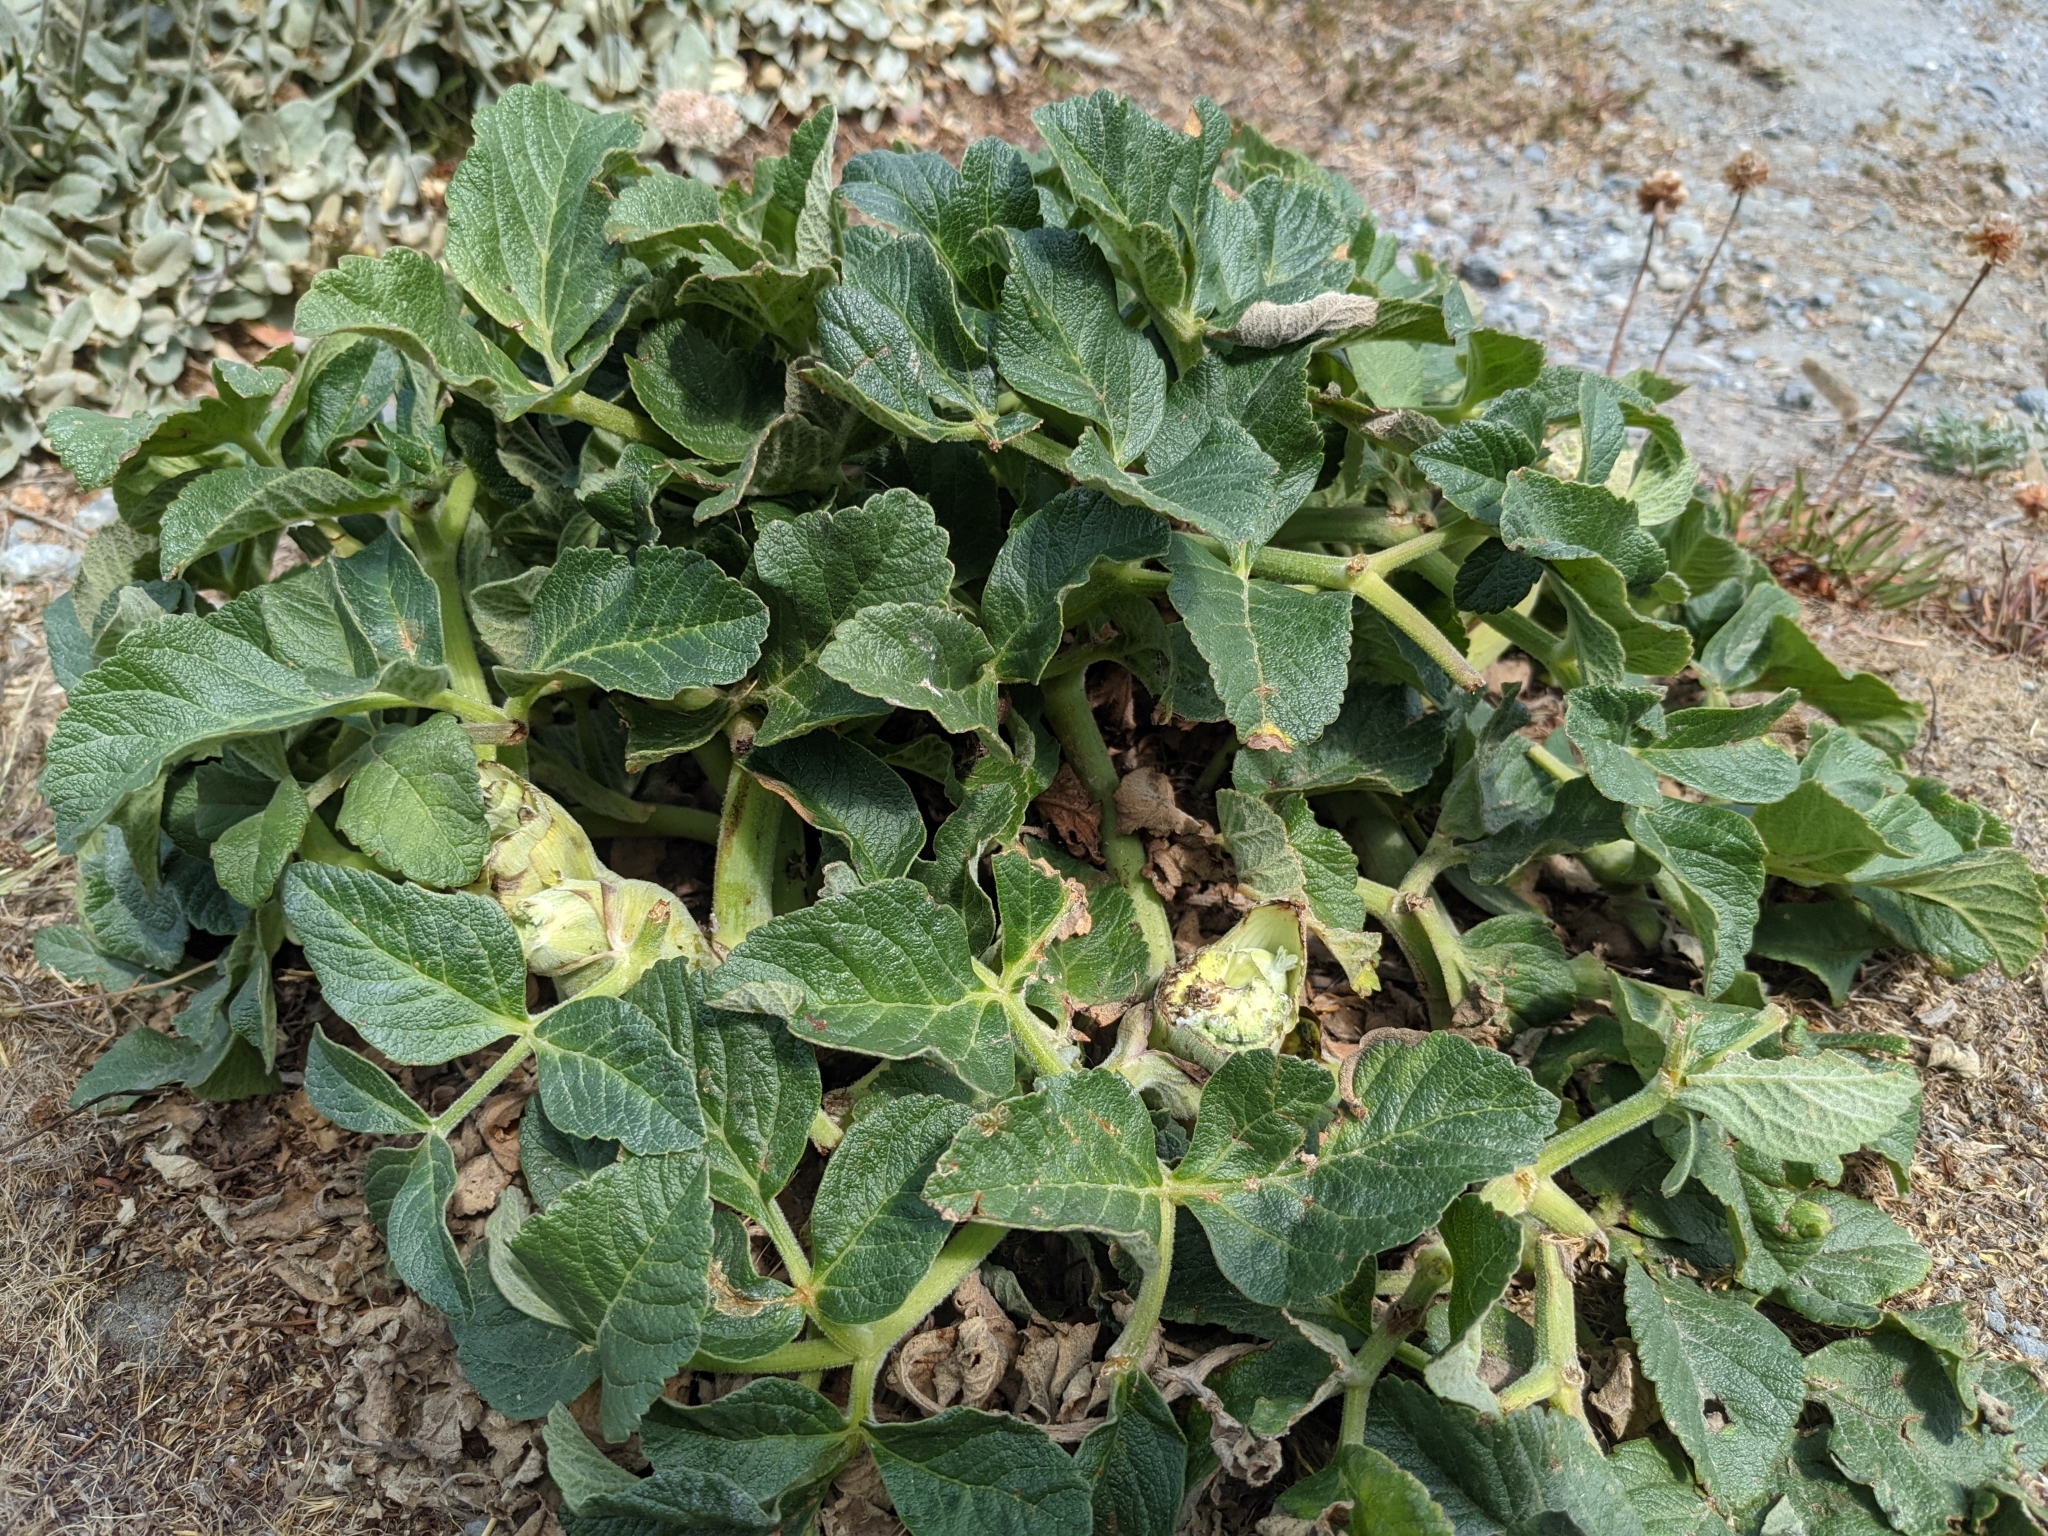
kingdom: Plantae
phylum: Tracheophyta
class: Magnoliopsida
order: Apiales
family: Apiaceae
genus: Angelica
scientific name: Angelica hendersonii
